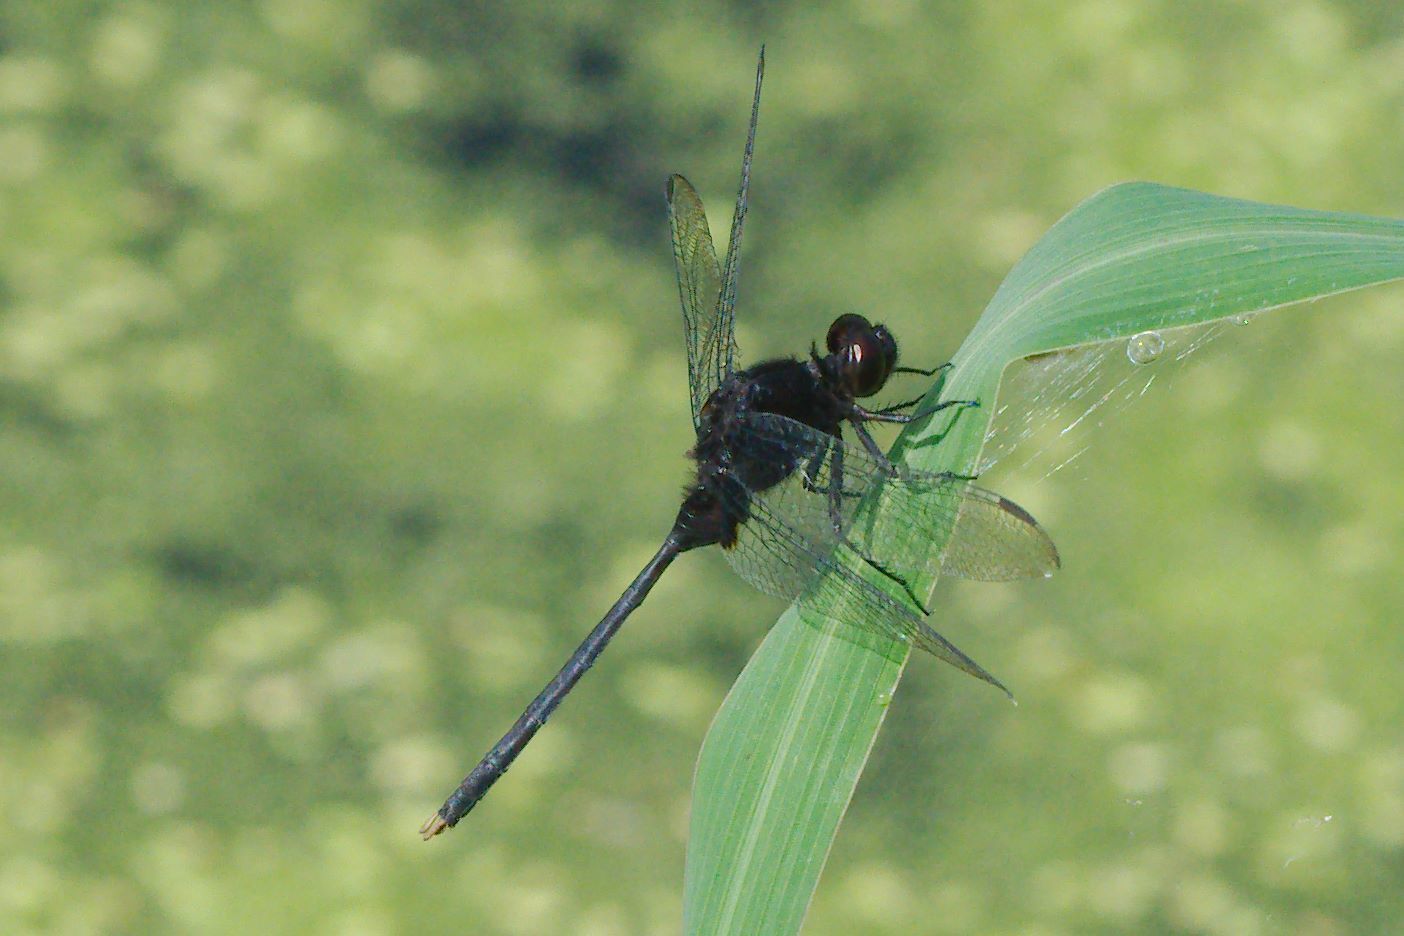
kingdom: Animalia
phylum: Arthropoda
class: Insecta
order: Odonata
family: Libellulidae
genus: Erythemis
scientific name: Erythemis plebeja
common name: Pin-tailed pondhawk
